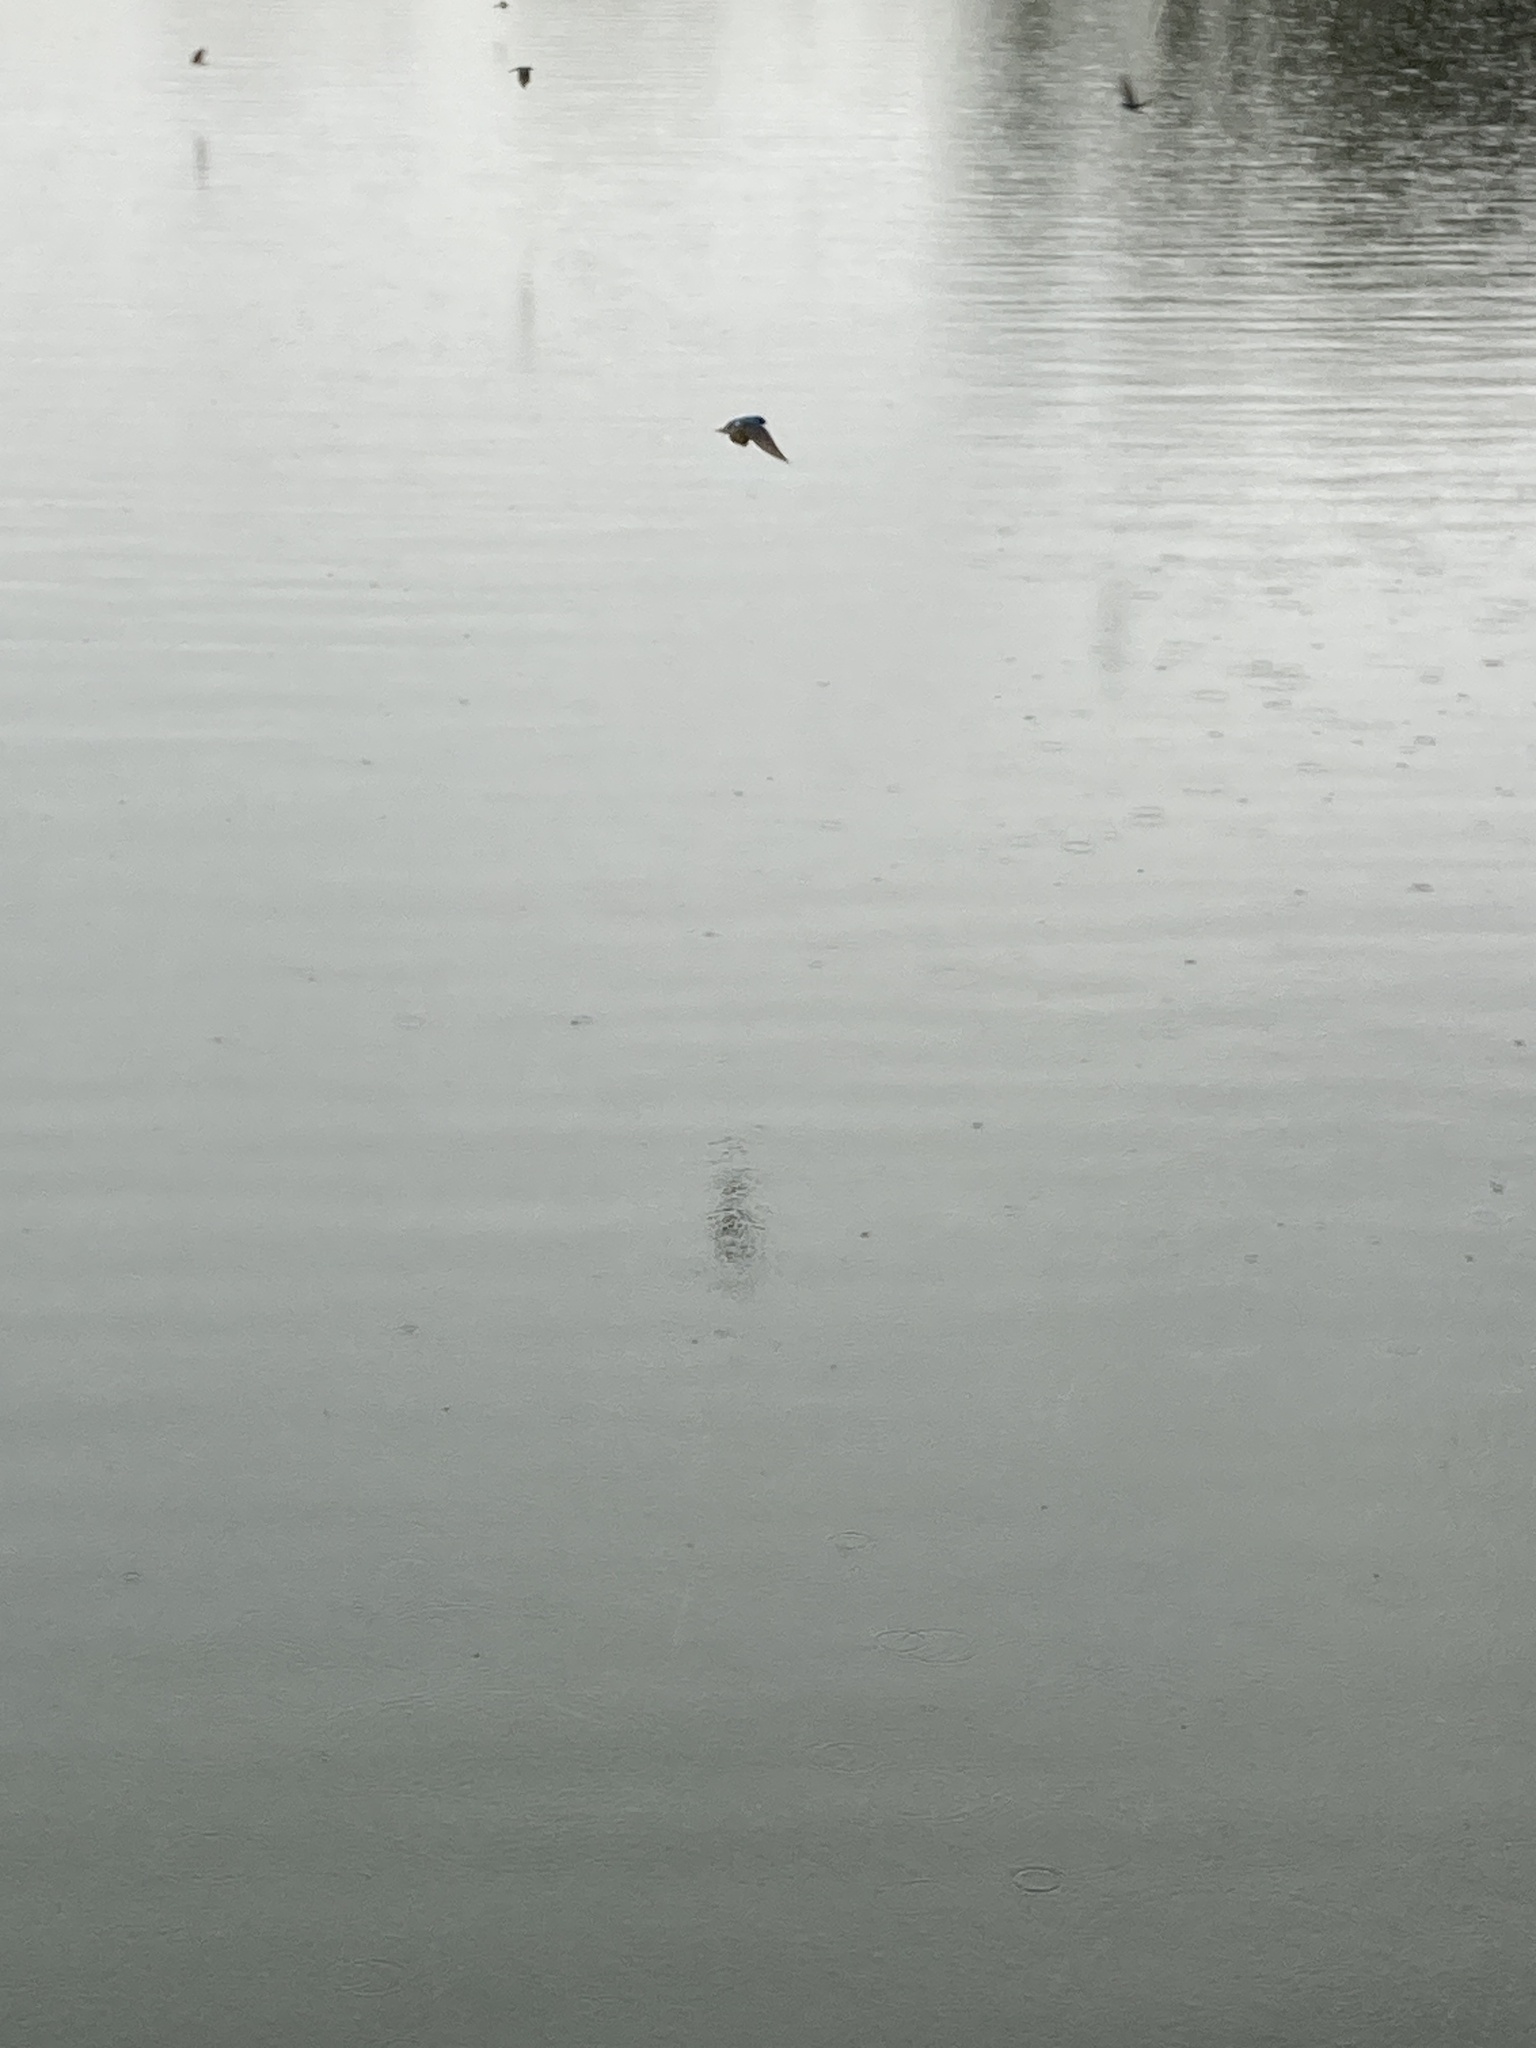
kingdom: Animalia
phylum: Chordata
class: Aves
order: Passeriformes
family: Hirundinidae
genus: Tachycineta
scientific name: Tachycineta bicolor
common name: Tree swallow
